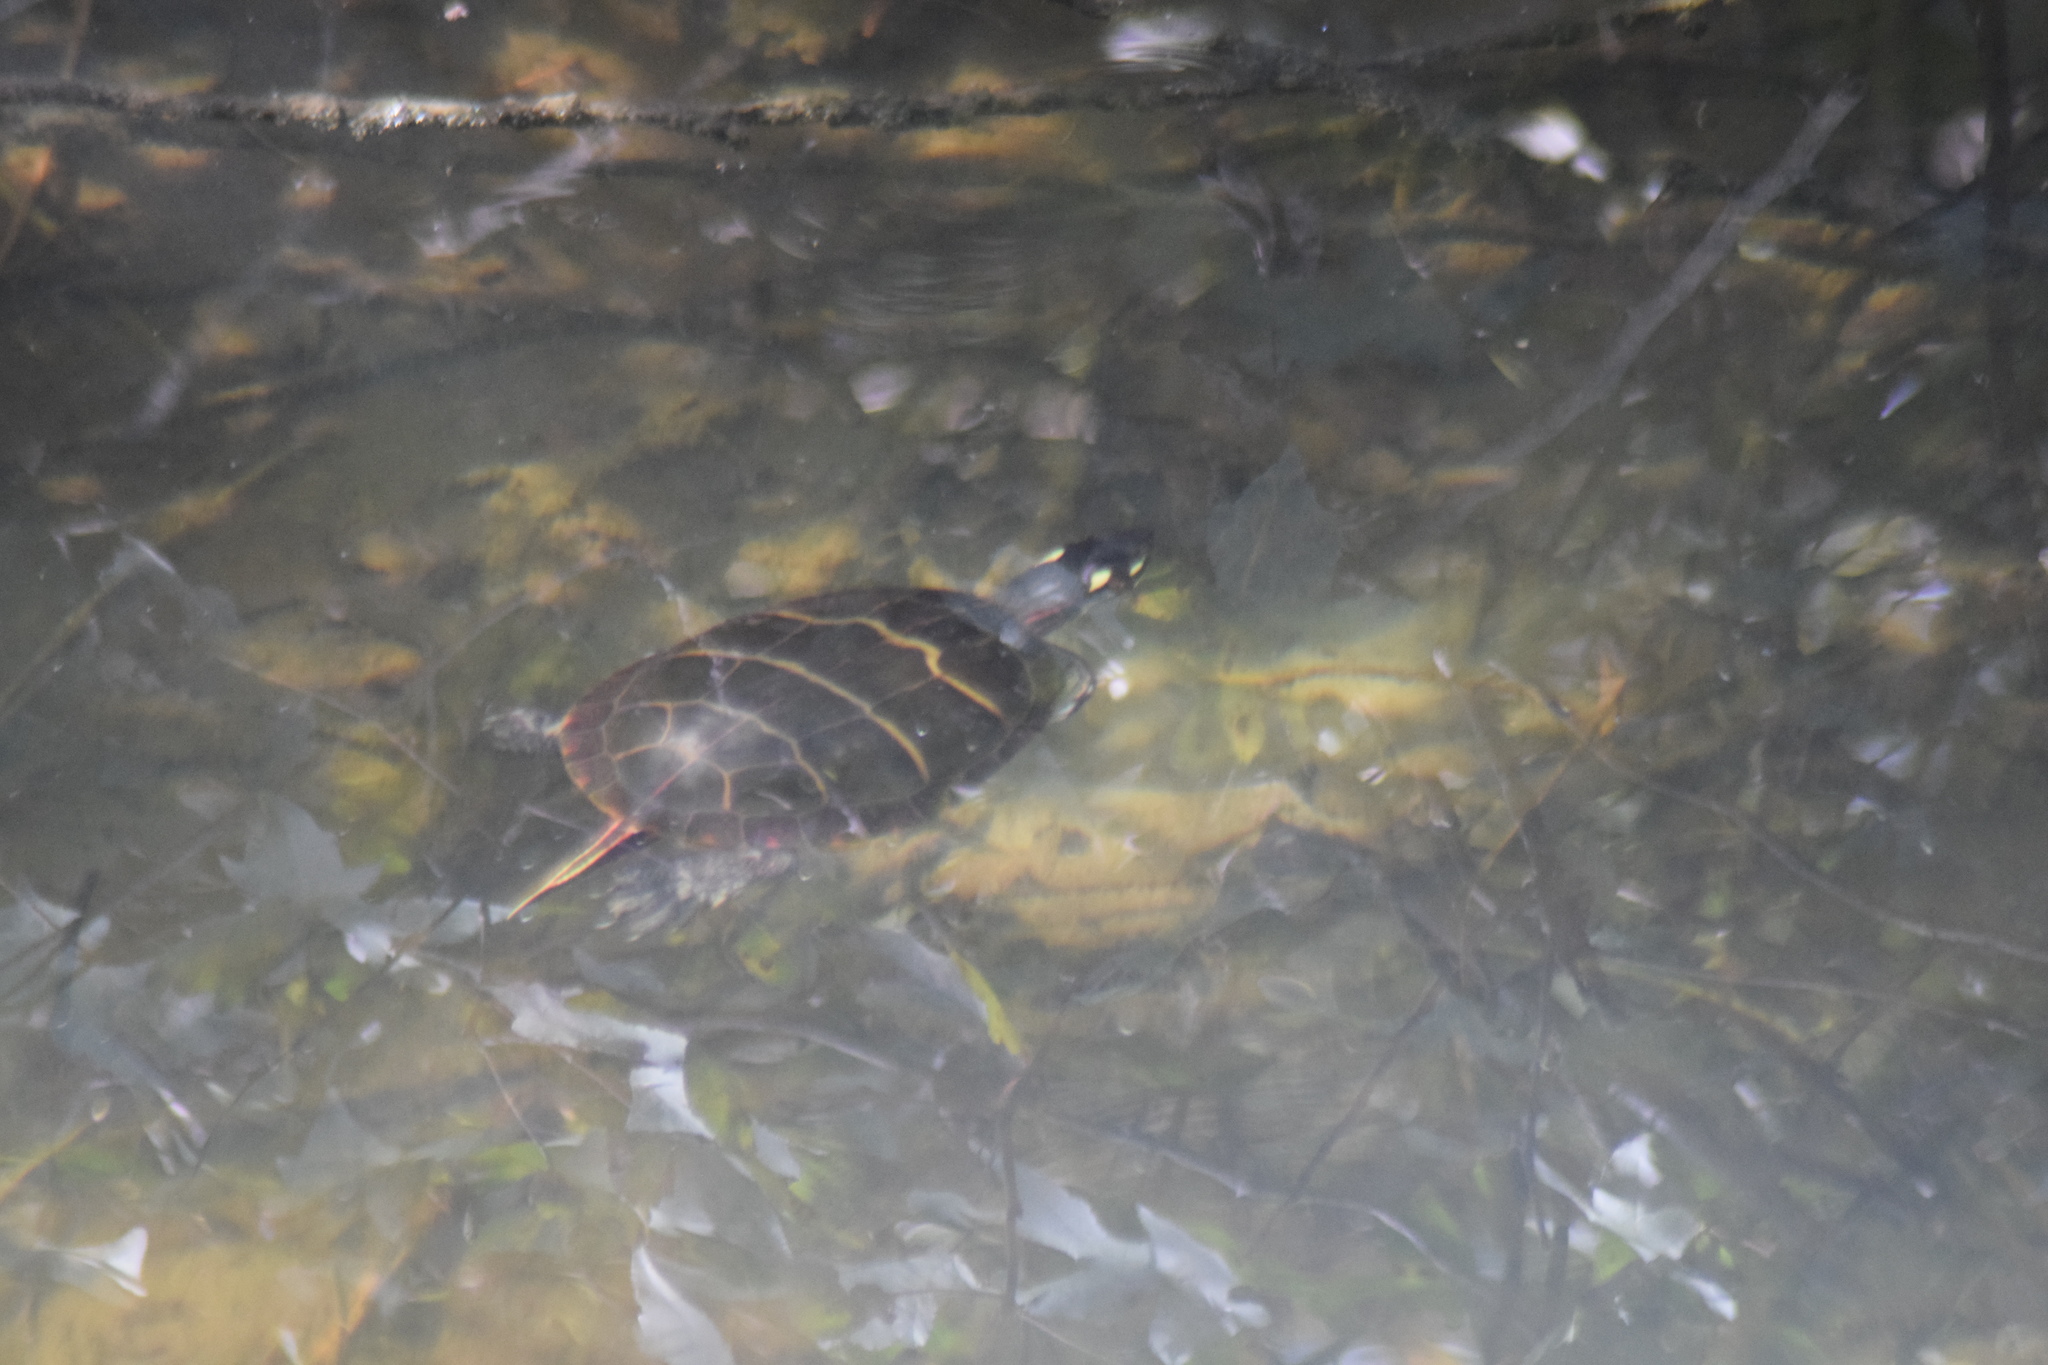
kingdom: Animalia
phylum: Chordata
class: Testudines
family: Emydidae
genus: Chrysemys
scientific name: Chrysemys picta
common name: Painted turtle
